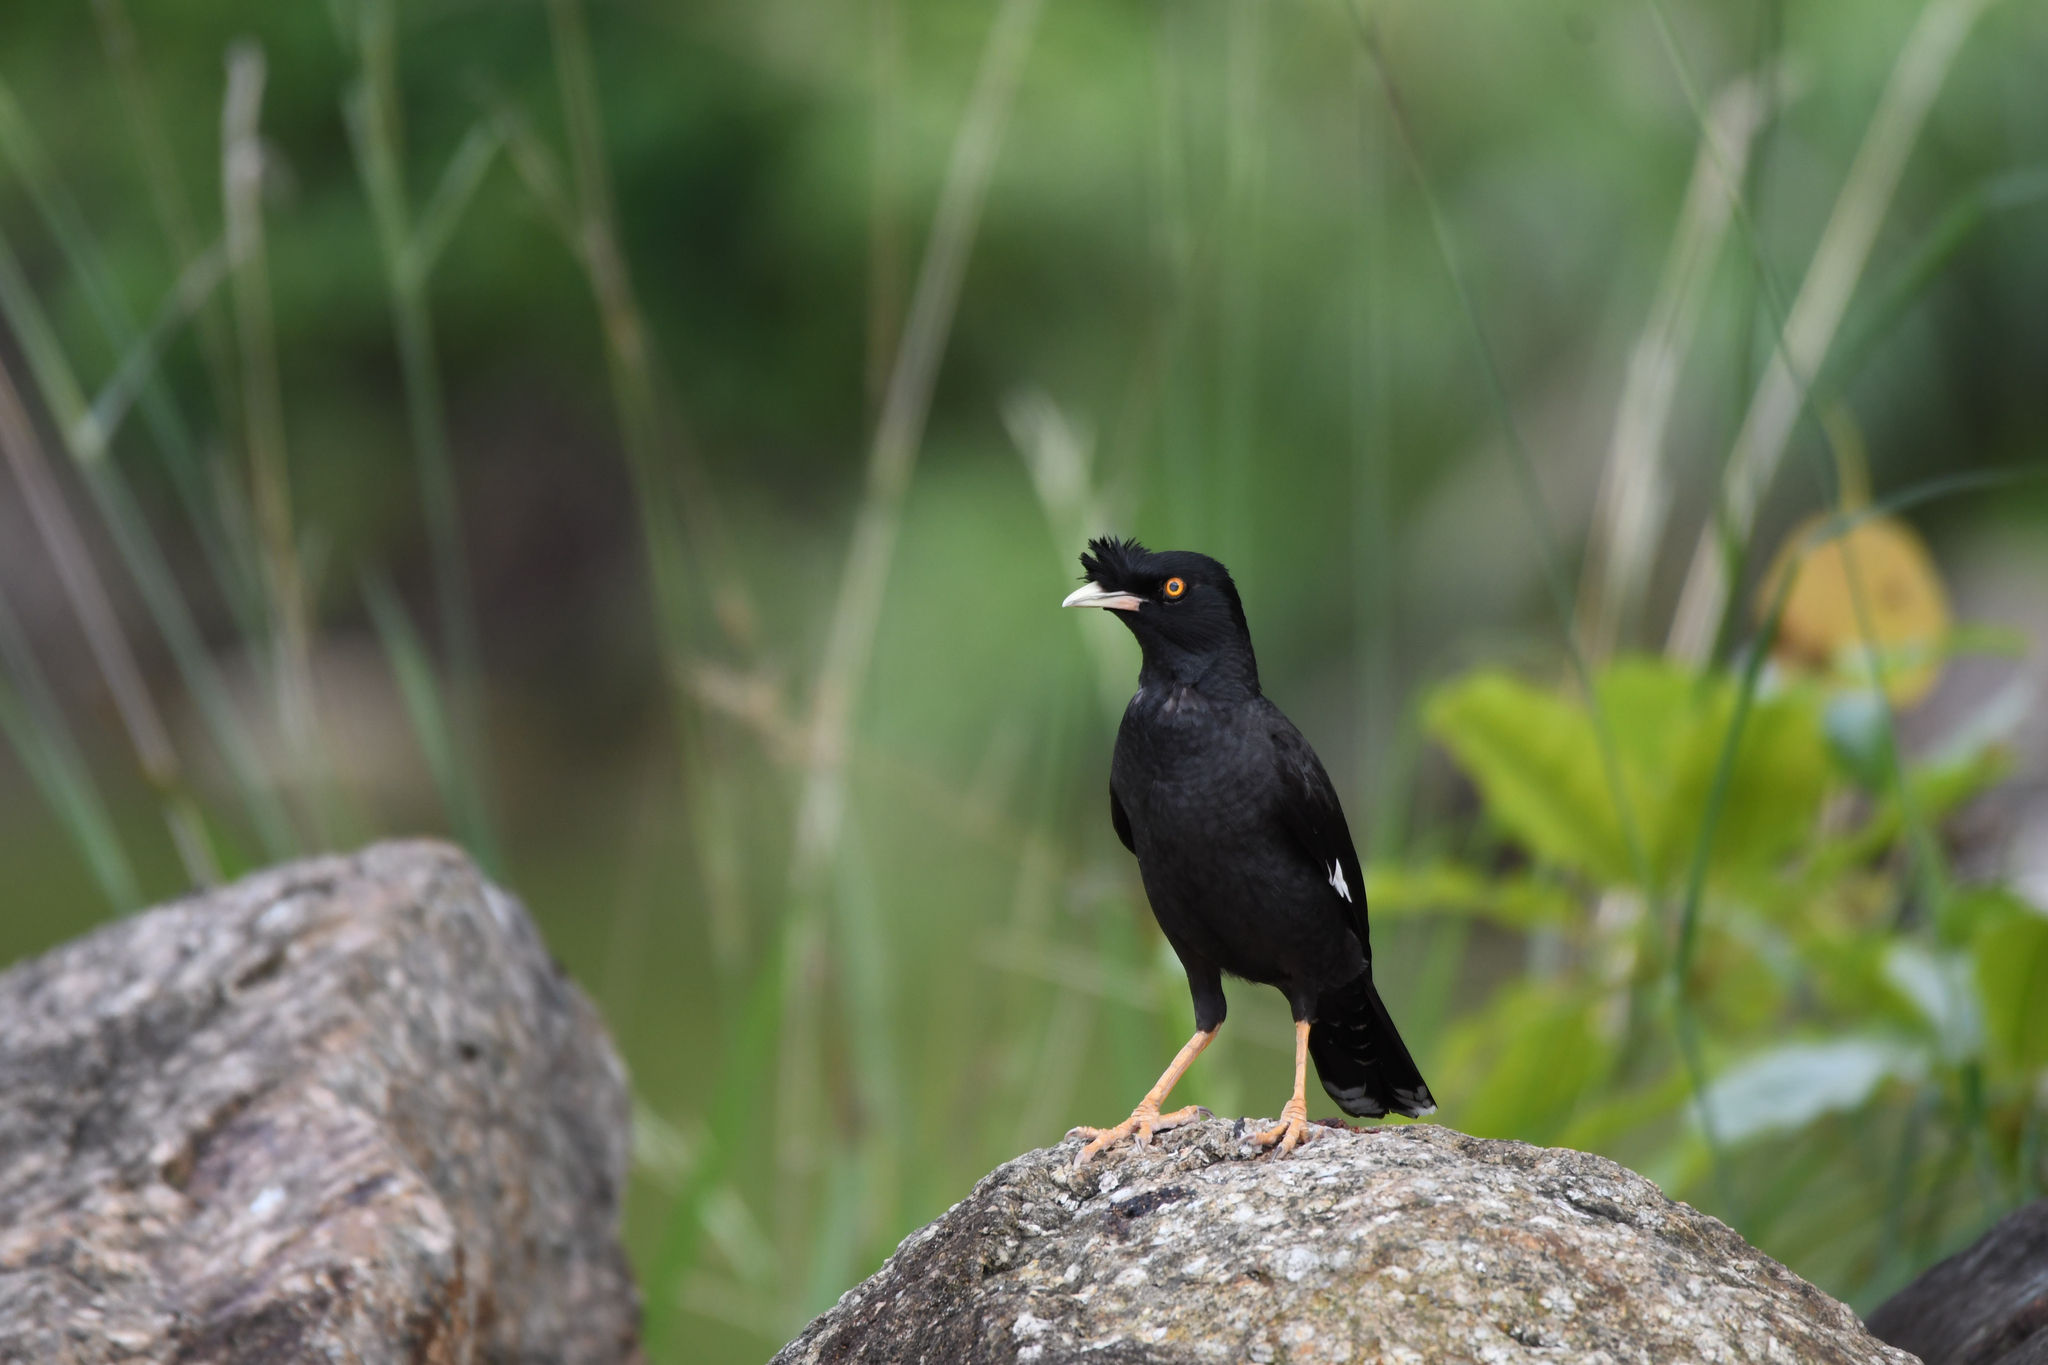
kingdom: Animalia
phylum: Chordata
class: Aves
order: Passeriformes
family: Sturnidae
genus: Acridotheres
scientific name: Acridotheres cristatellus
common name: Crested myna
